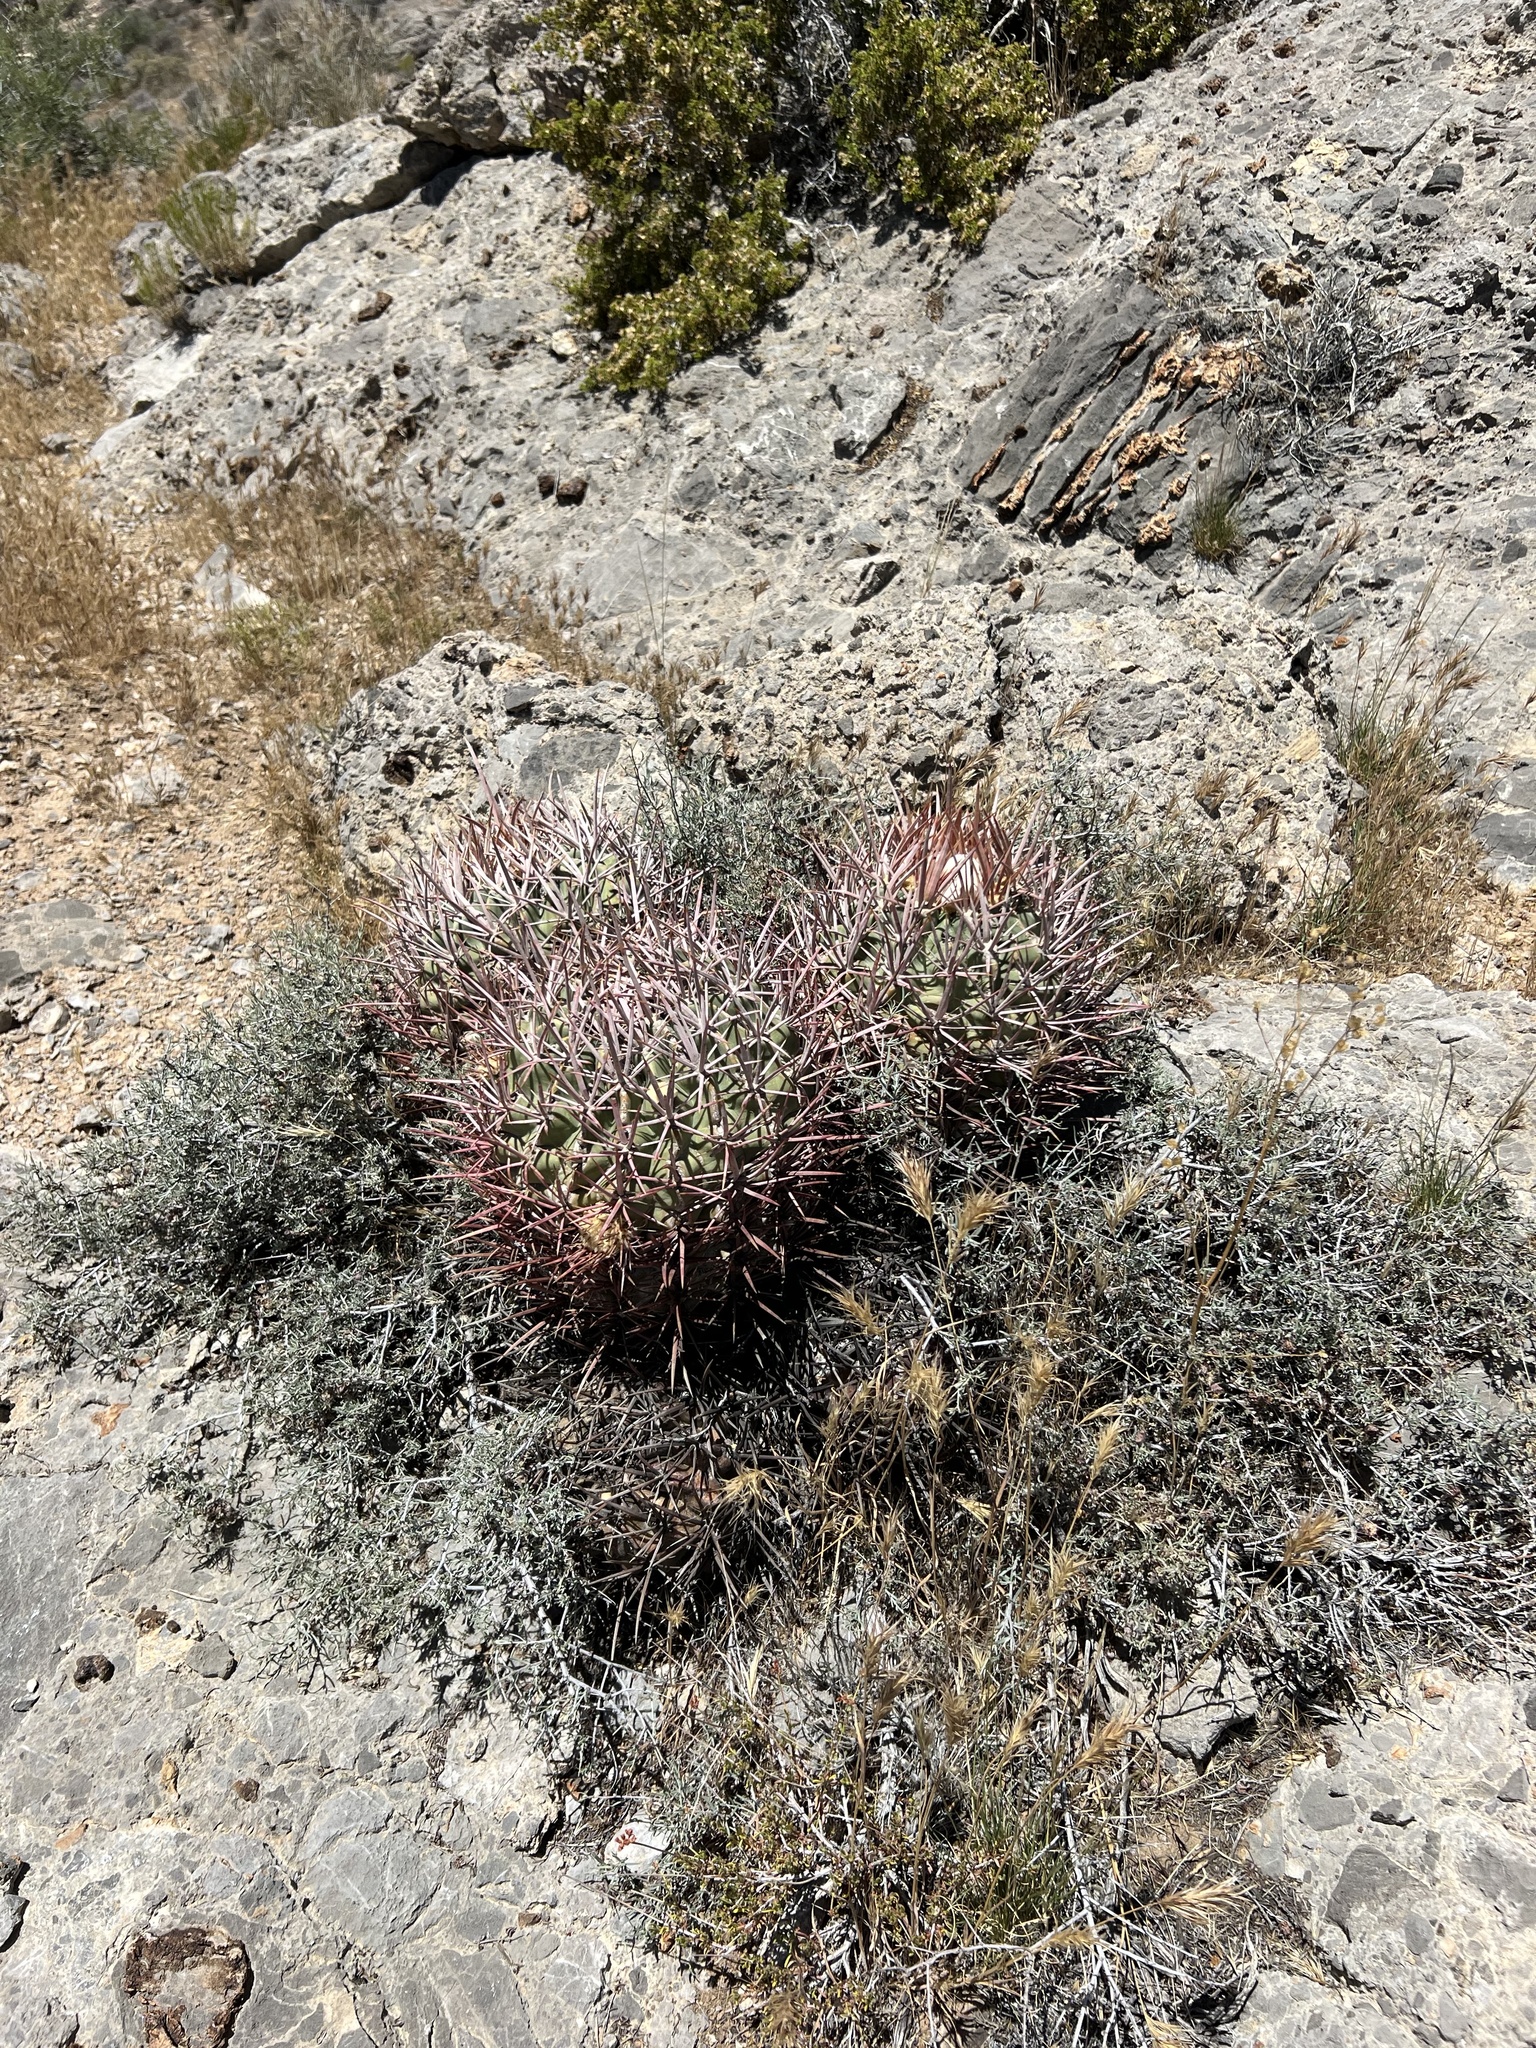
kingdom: Plantae
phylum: Tracheophyta
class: Magnoliopsida
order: Caryophyllales
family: Cactaceae
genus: Echinocactus
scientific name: Echinocactus polycephalus
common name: Cottontop cactus
